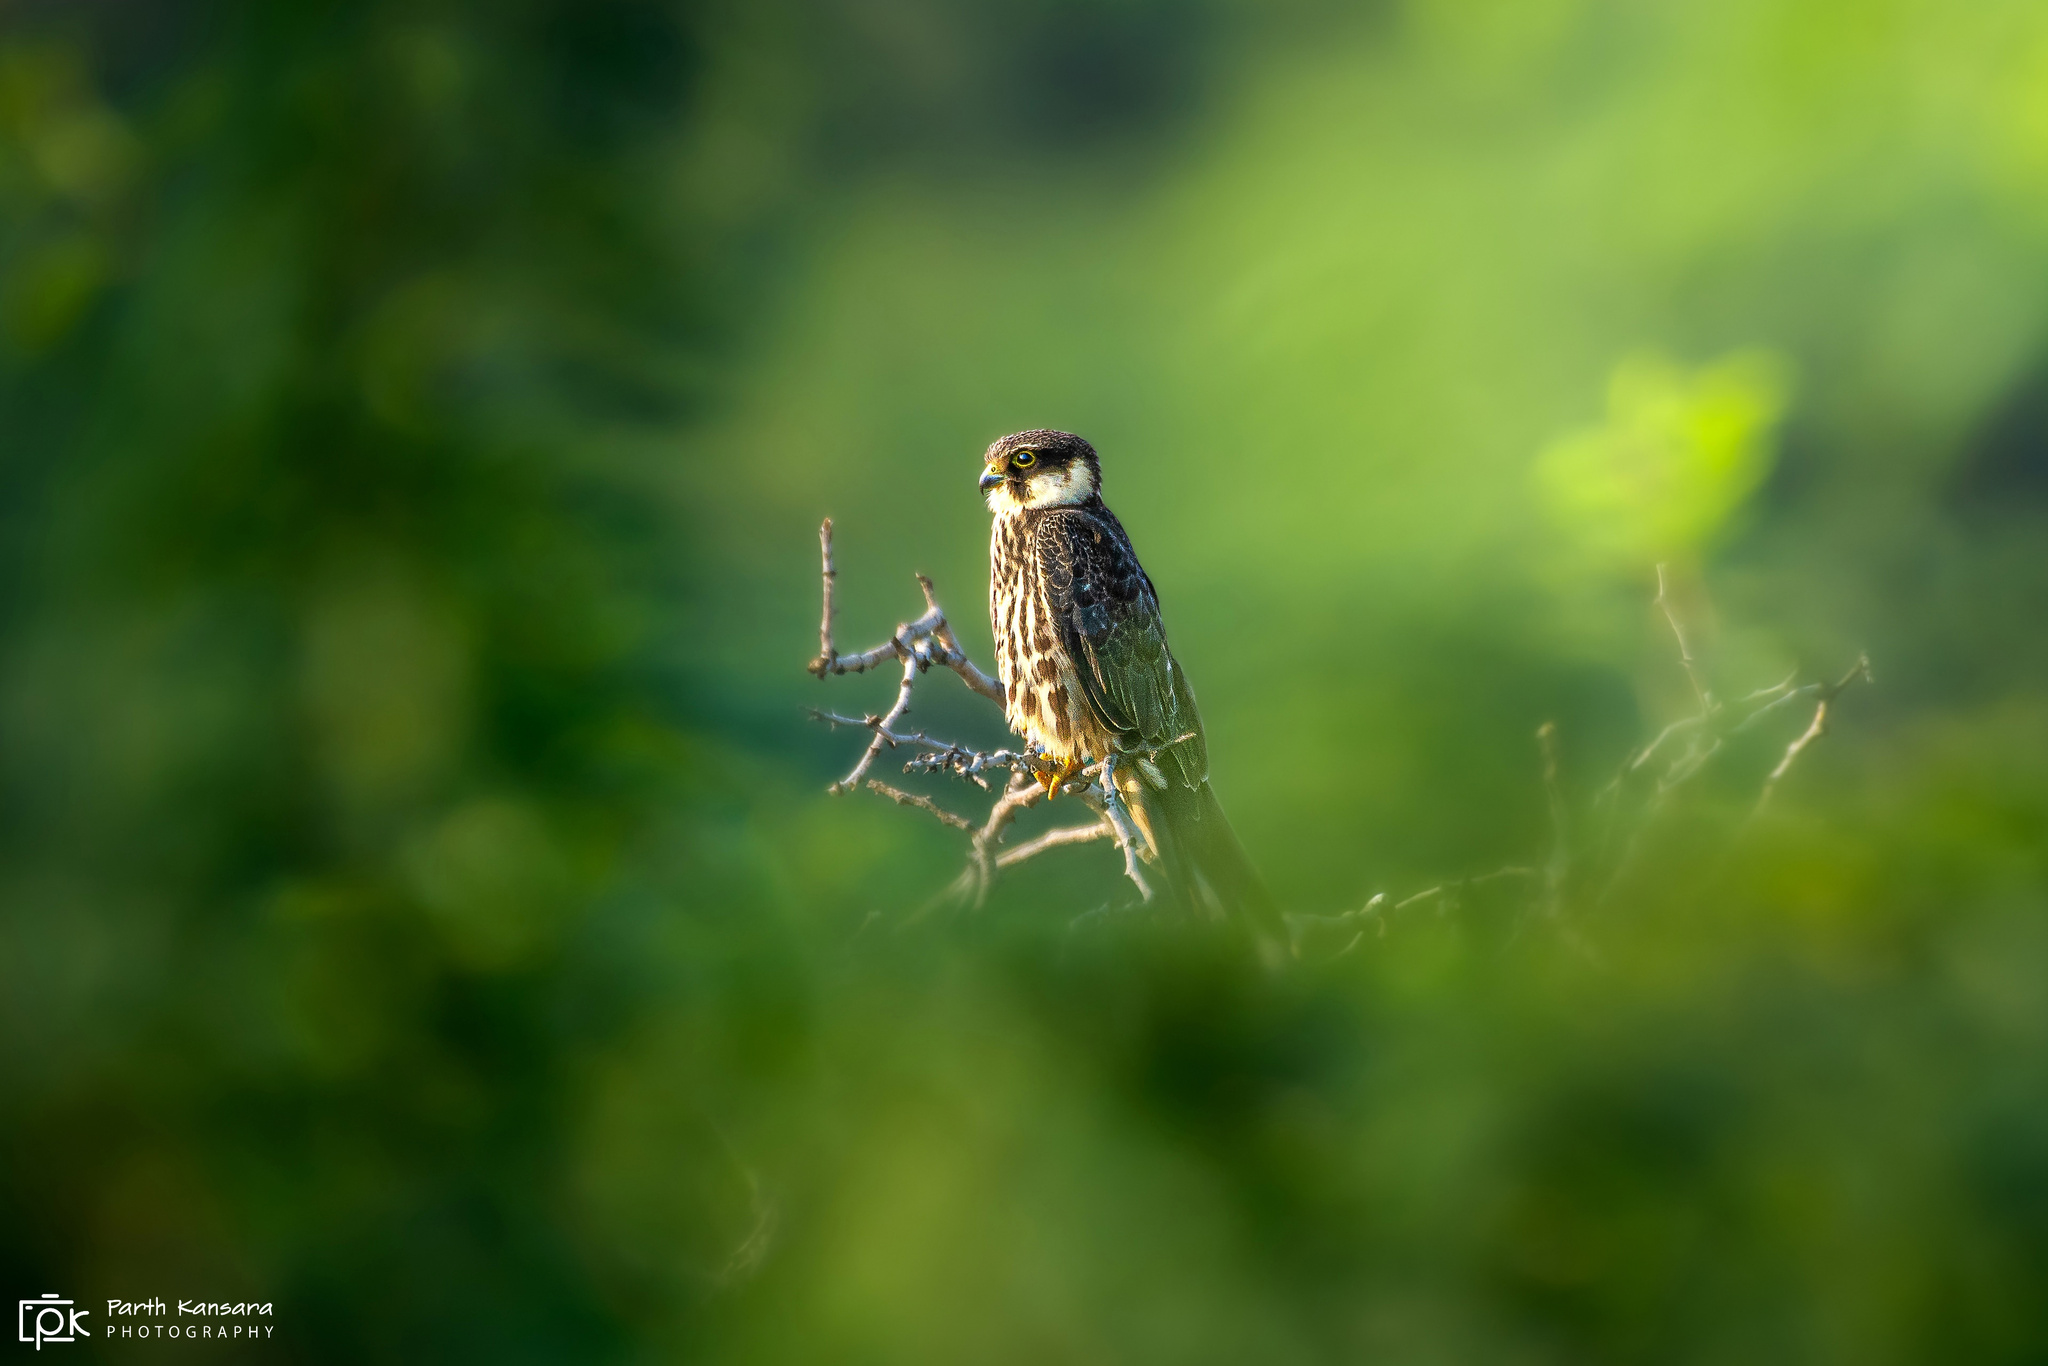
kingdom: Animalia
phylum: Chordata
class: Aves
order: Falconiformes
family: Falconidae
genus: Falco
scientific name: Falco subbuteo
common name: Eurasian hobby
